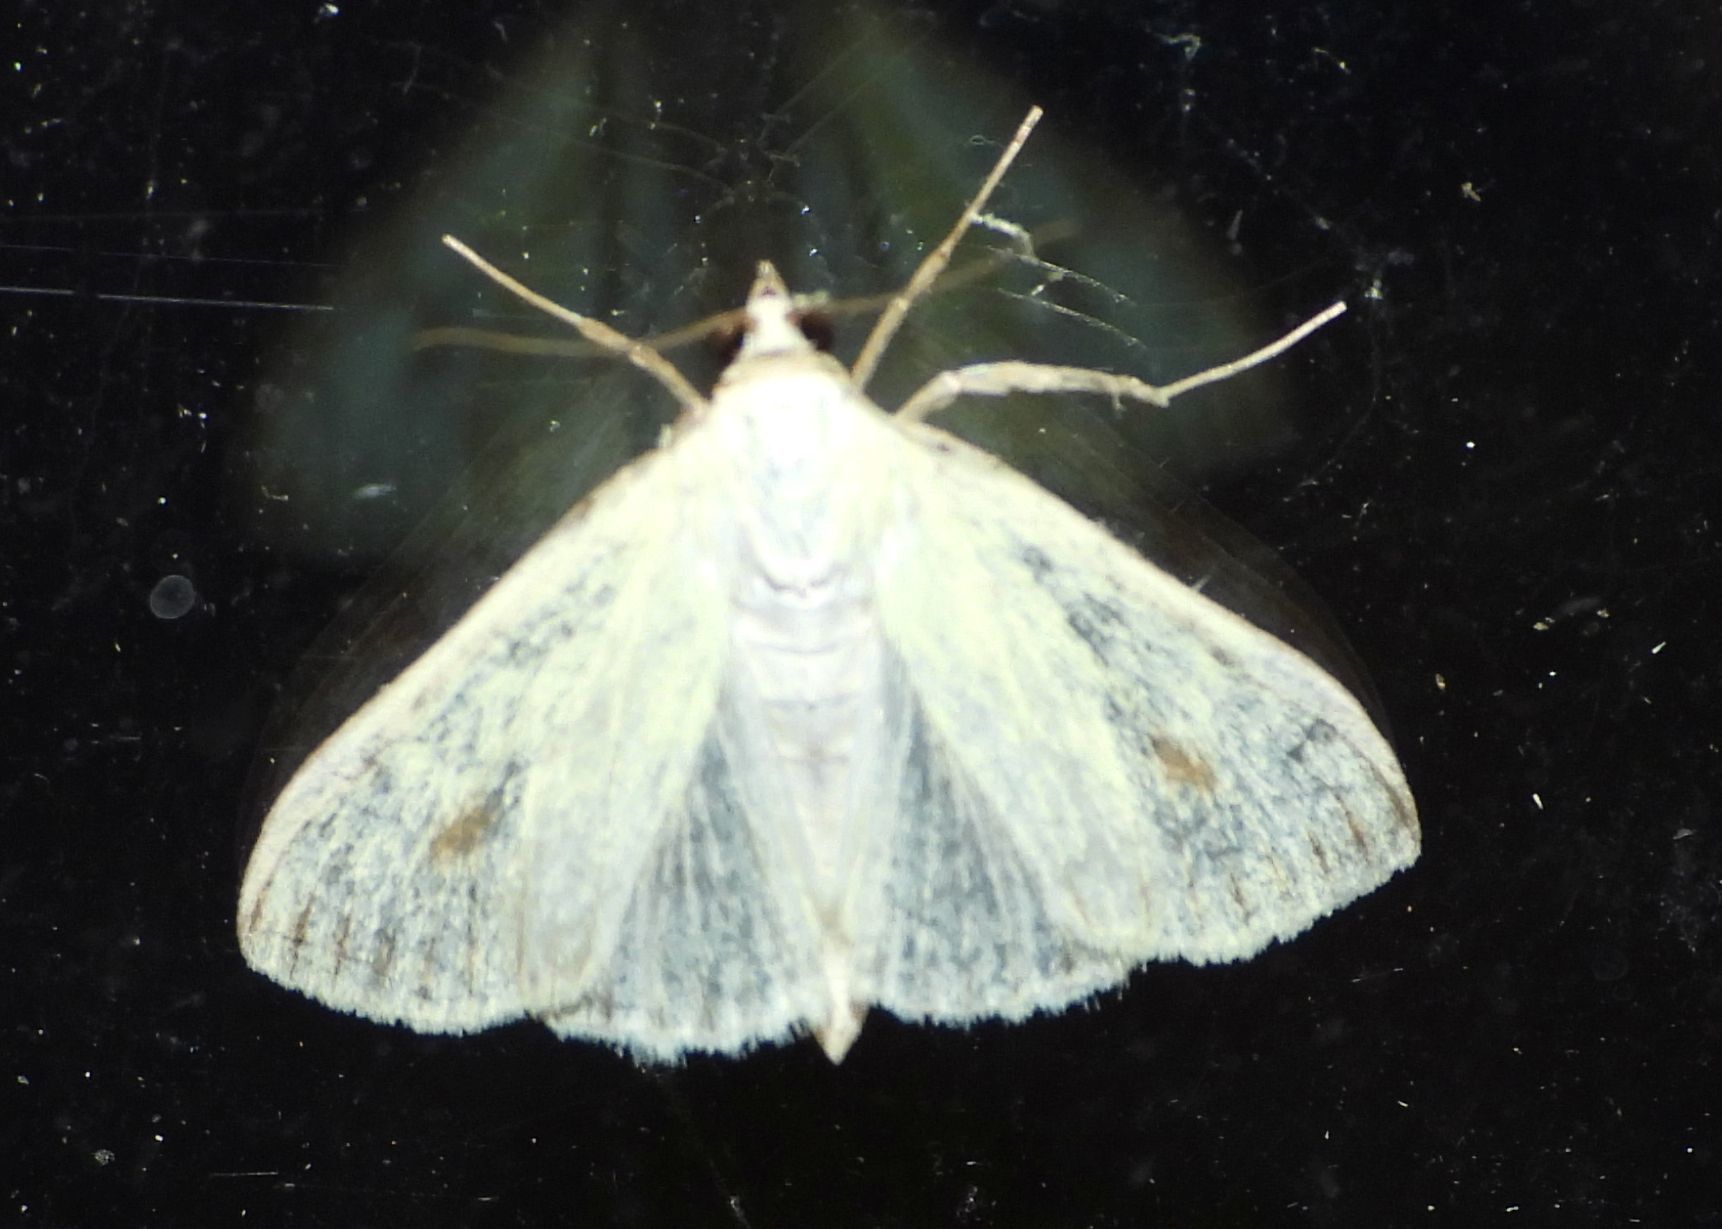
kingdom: Animalia
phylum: Arthropoda
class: Insecta
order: Lepidoptera
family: Crambidae
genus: Sitochroa
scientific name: Sitochroa palealis
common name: Greenish-yellow sitochroa moth
